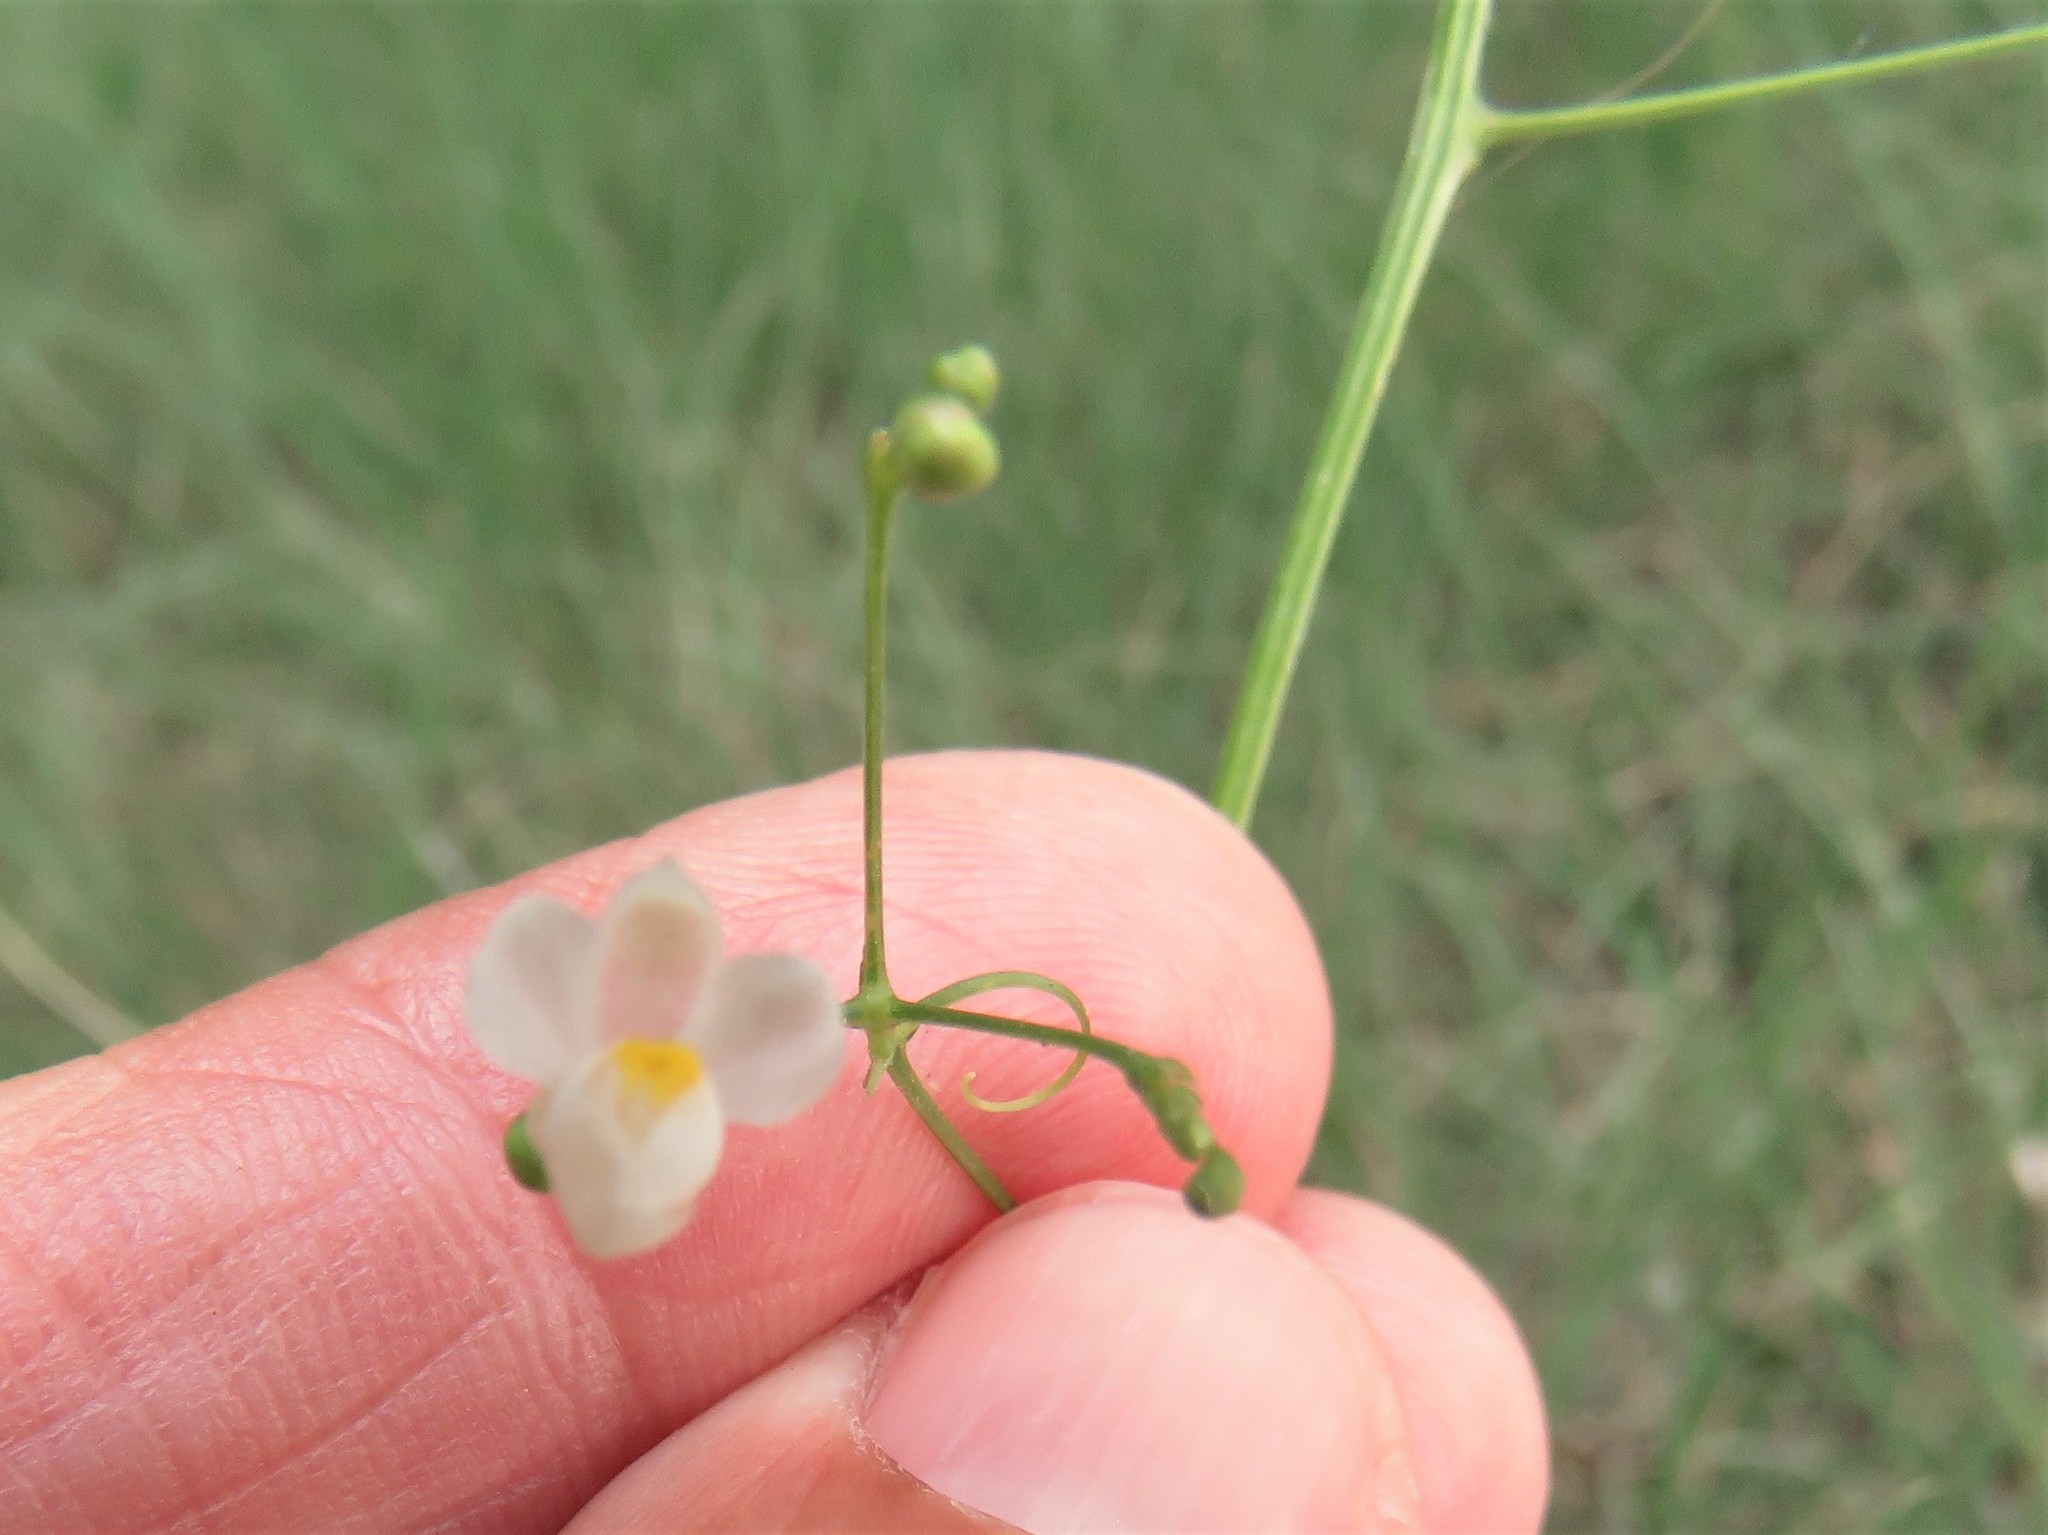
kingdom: Plantae
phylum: Tracheophyta
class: Magnoliopsida
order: Sapindales
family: Sapindaceae
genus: Cardiospermum
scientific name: Cardiospermum halicacabum
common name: Balloon vine
